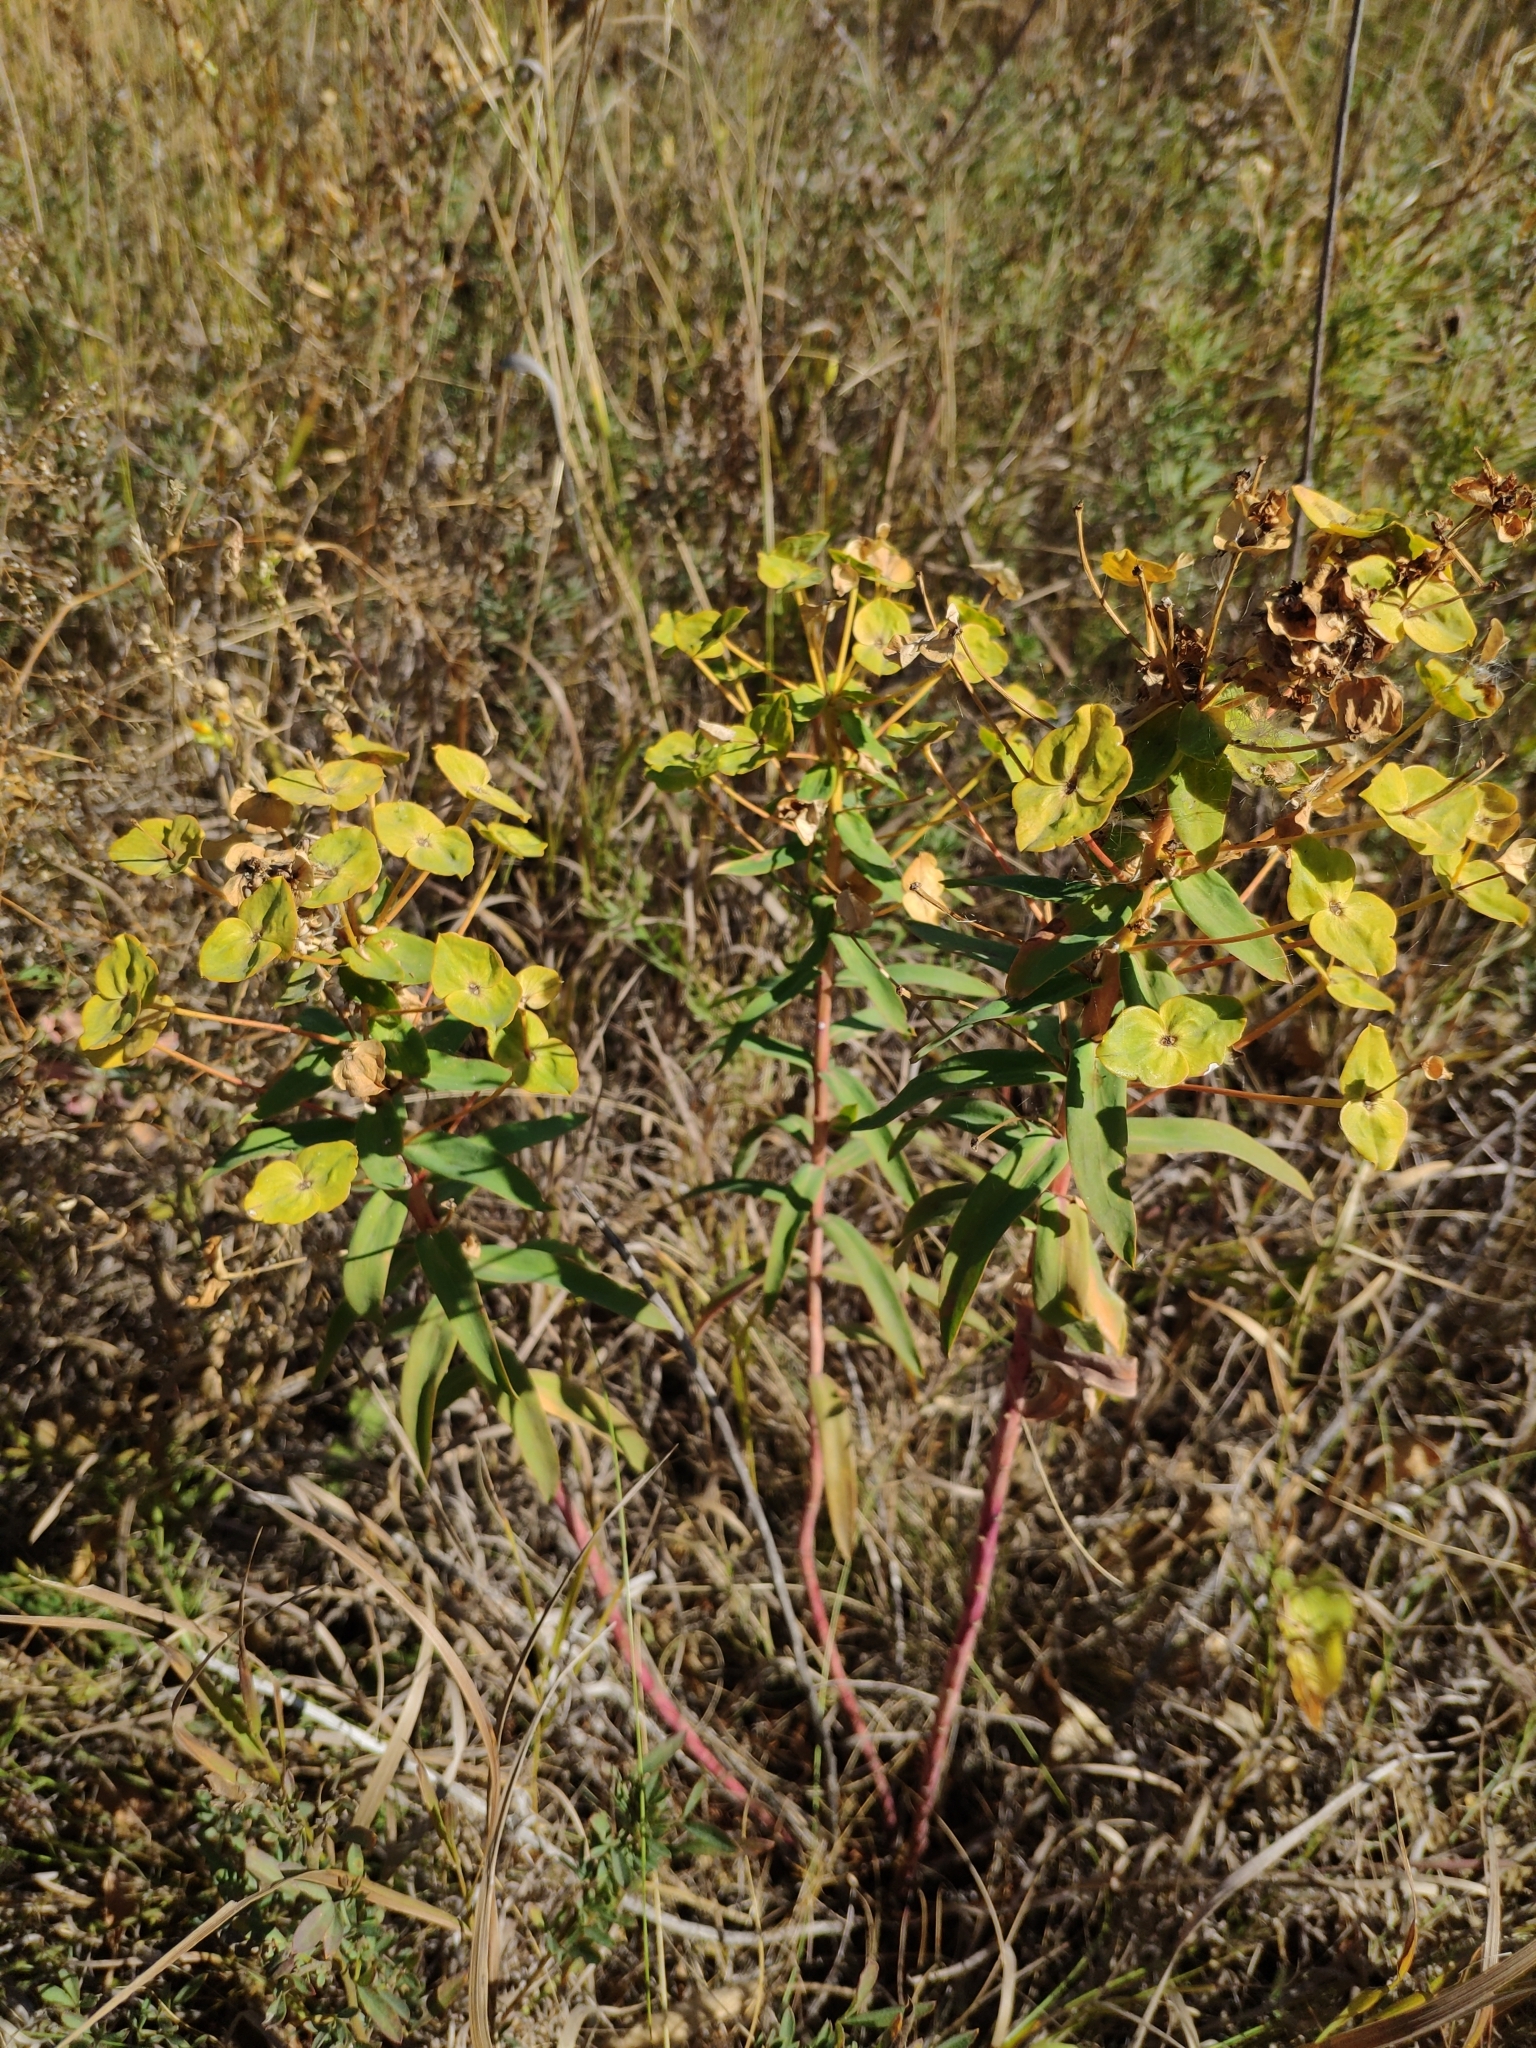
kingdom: Plantae
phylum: Tracheophyta
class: Magnoliopsida
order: Malpighiales
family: Euphorbiaceae
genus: Euphorbia
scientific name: Euphorbia stepposa
